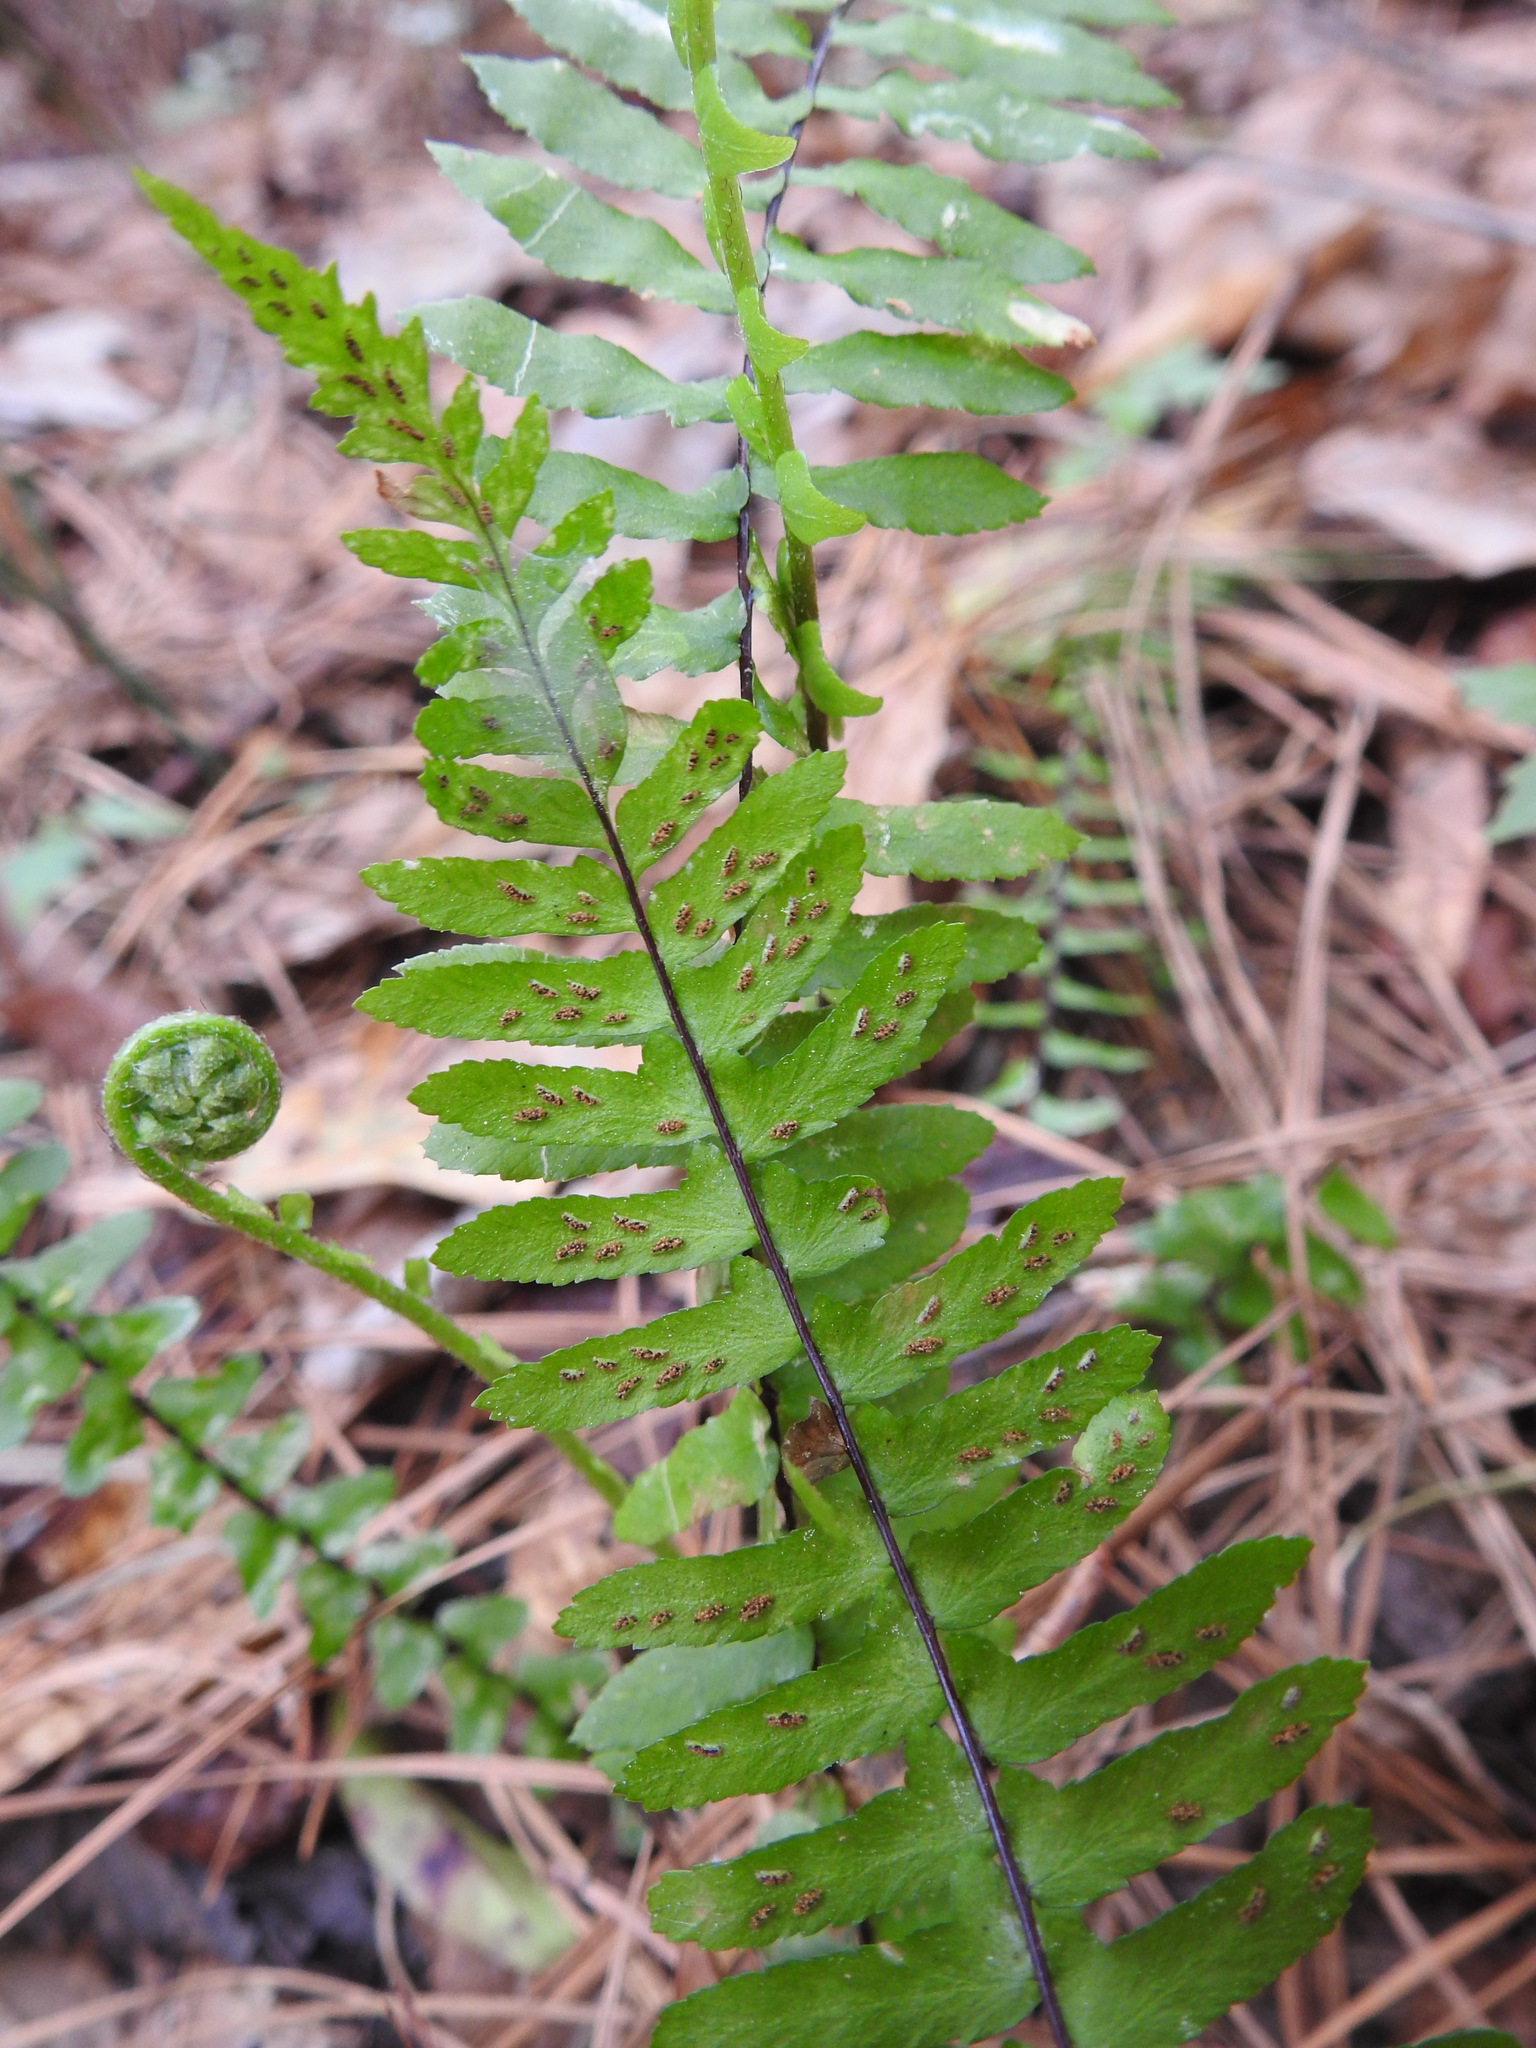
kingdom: Plantae
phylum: Tracheophyta
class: Polypodiopsida
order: Polypodiales
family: Aspleniaceae
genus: Asplenium
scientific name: Asplenium platyneuron
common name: Ebony spleenwort
